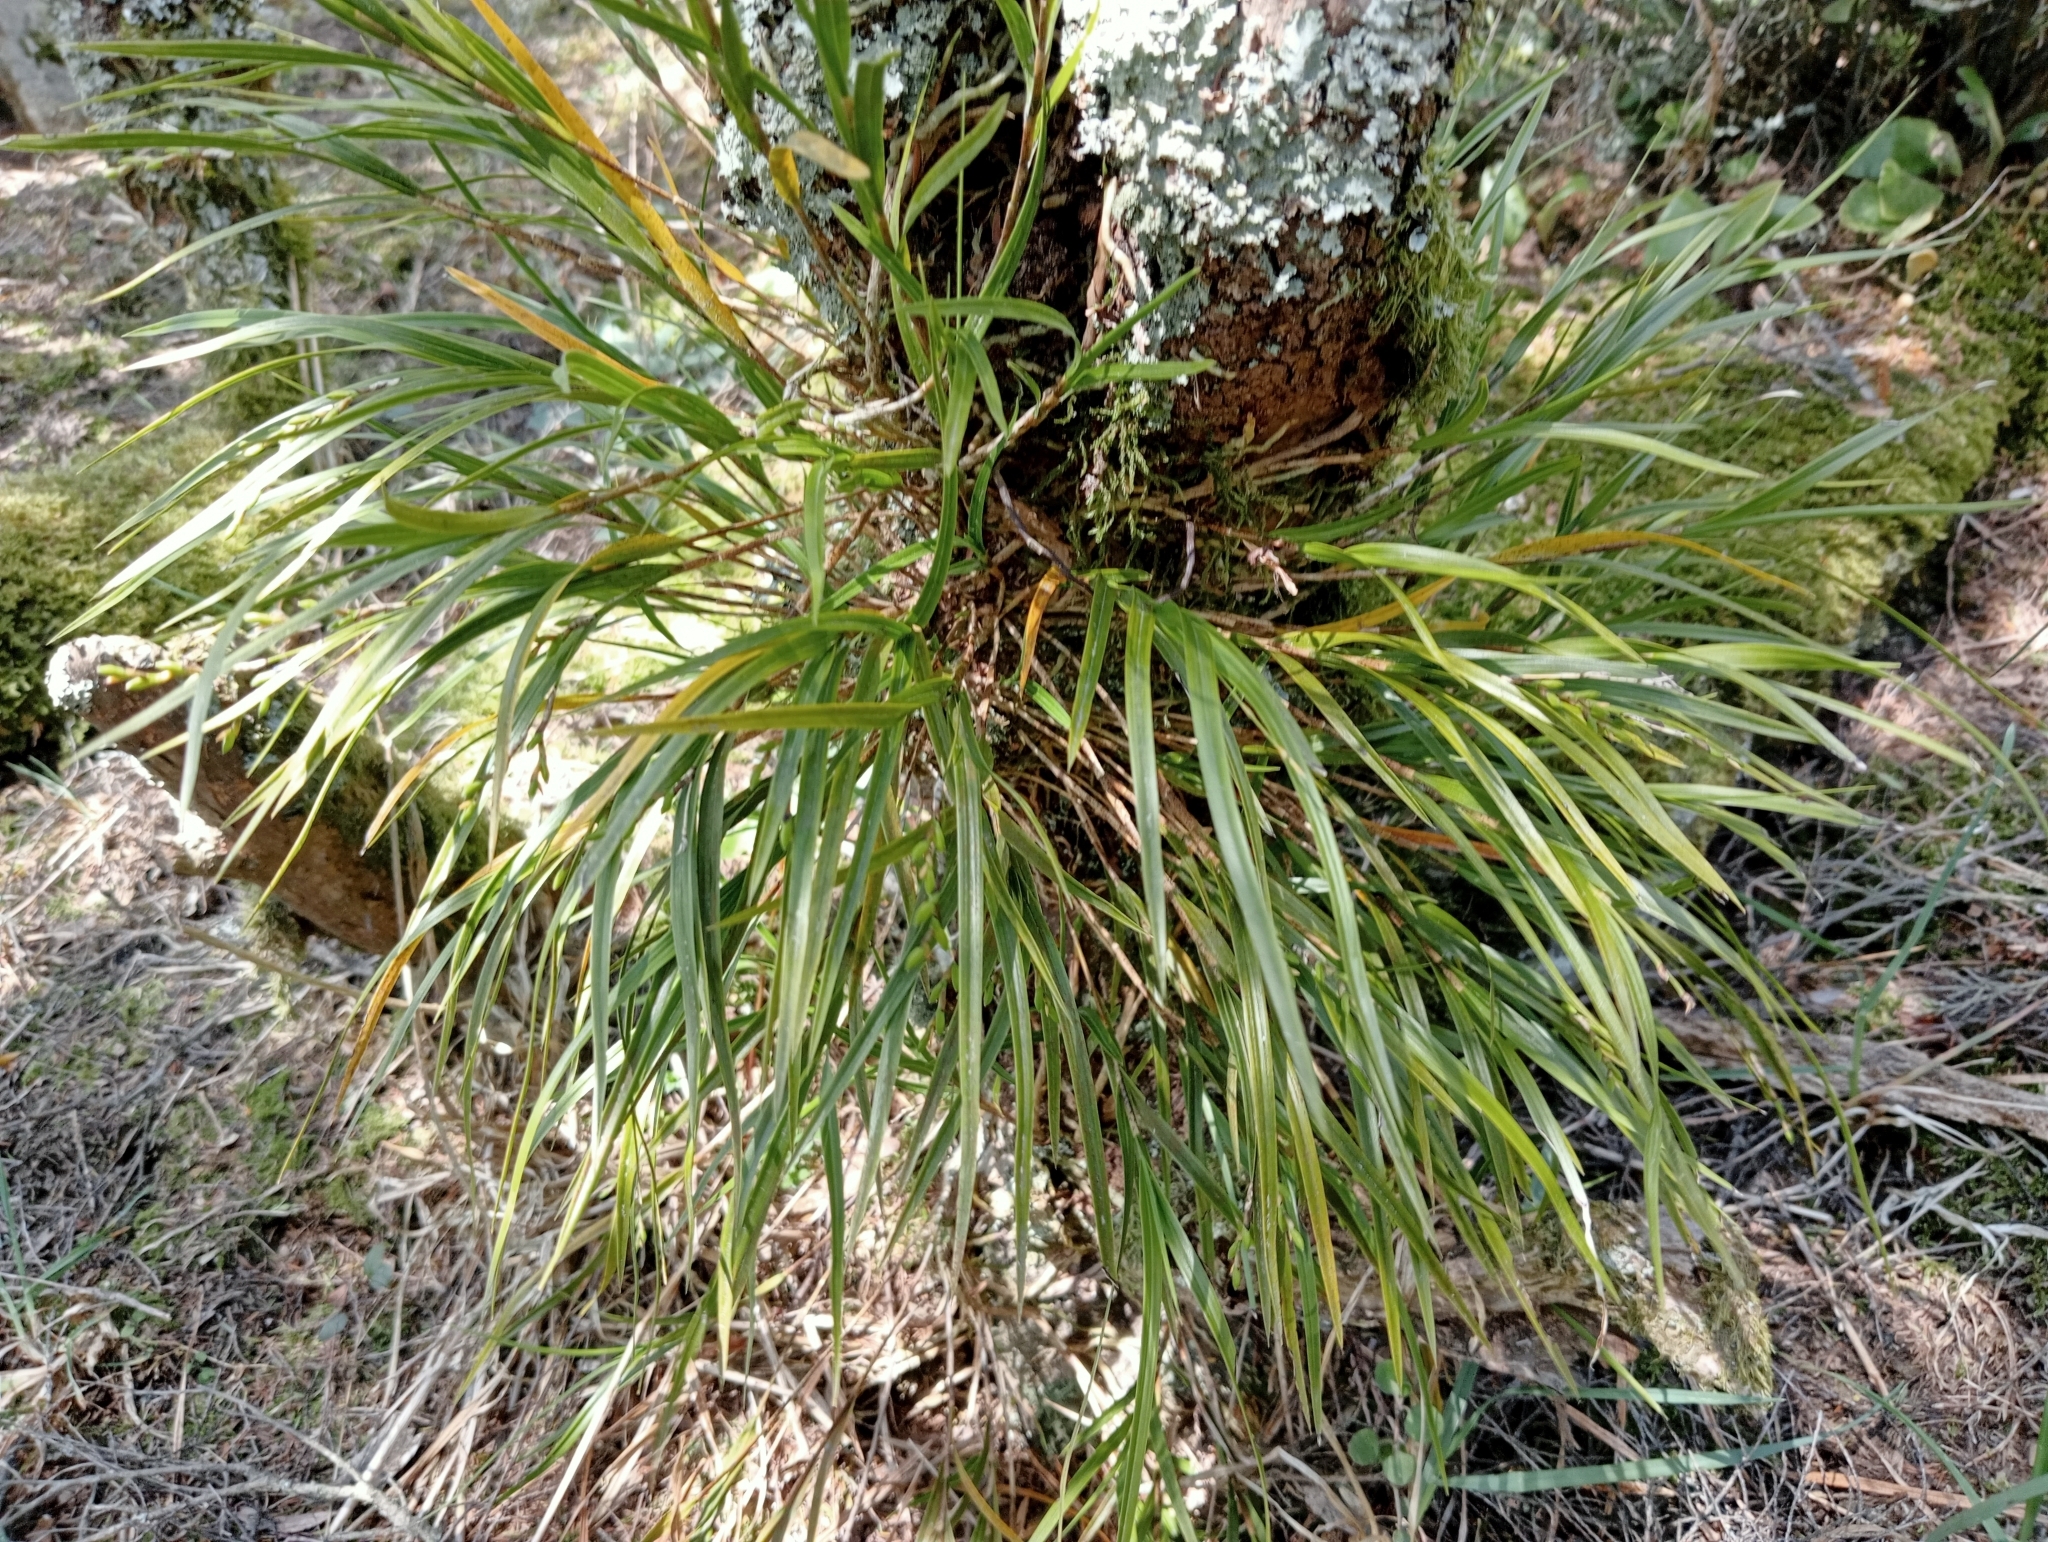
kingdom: Plantae
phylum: Tracheophyta
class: Liliopsida
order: Asparagales
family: Orchidaceae
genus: Earina
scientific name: Earina mucronata
